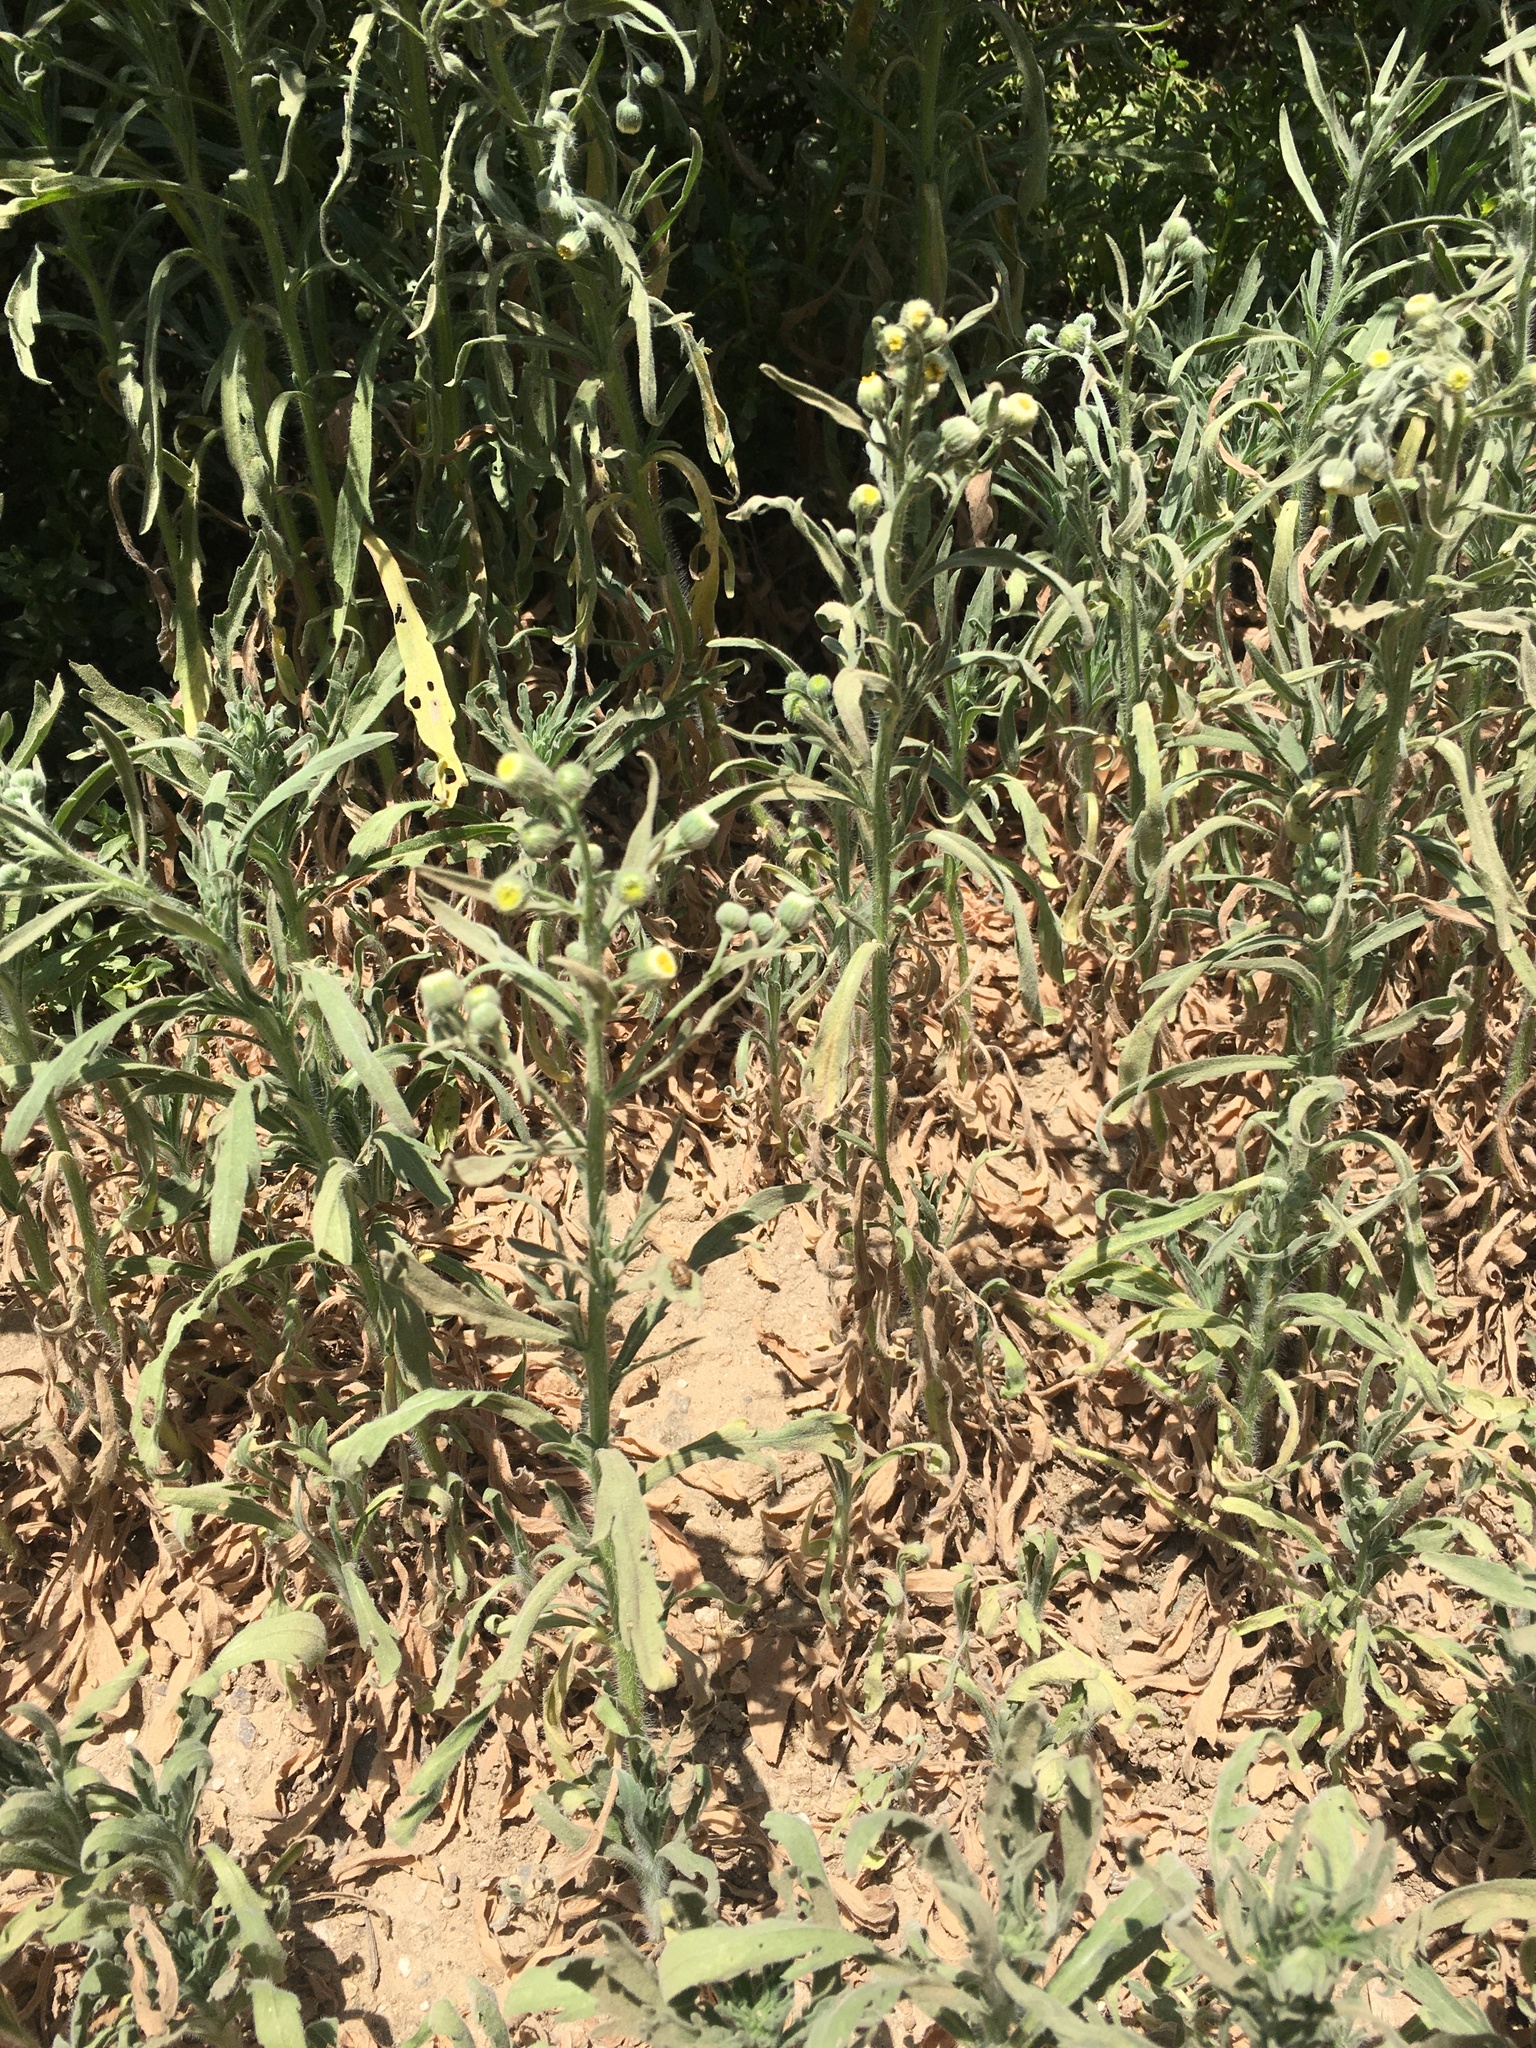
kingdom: Plantae
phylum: Tracheophyta
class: Magnoliopsida
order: Asterales
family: Asteraceae
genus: Erigeron
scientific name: Erigeron bonariensis
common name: Argentine fleabane
